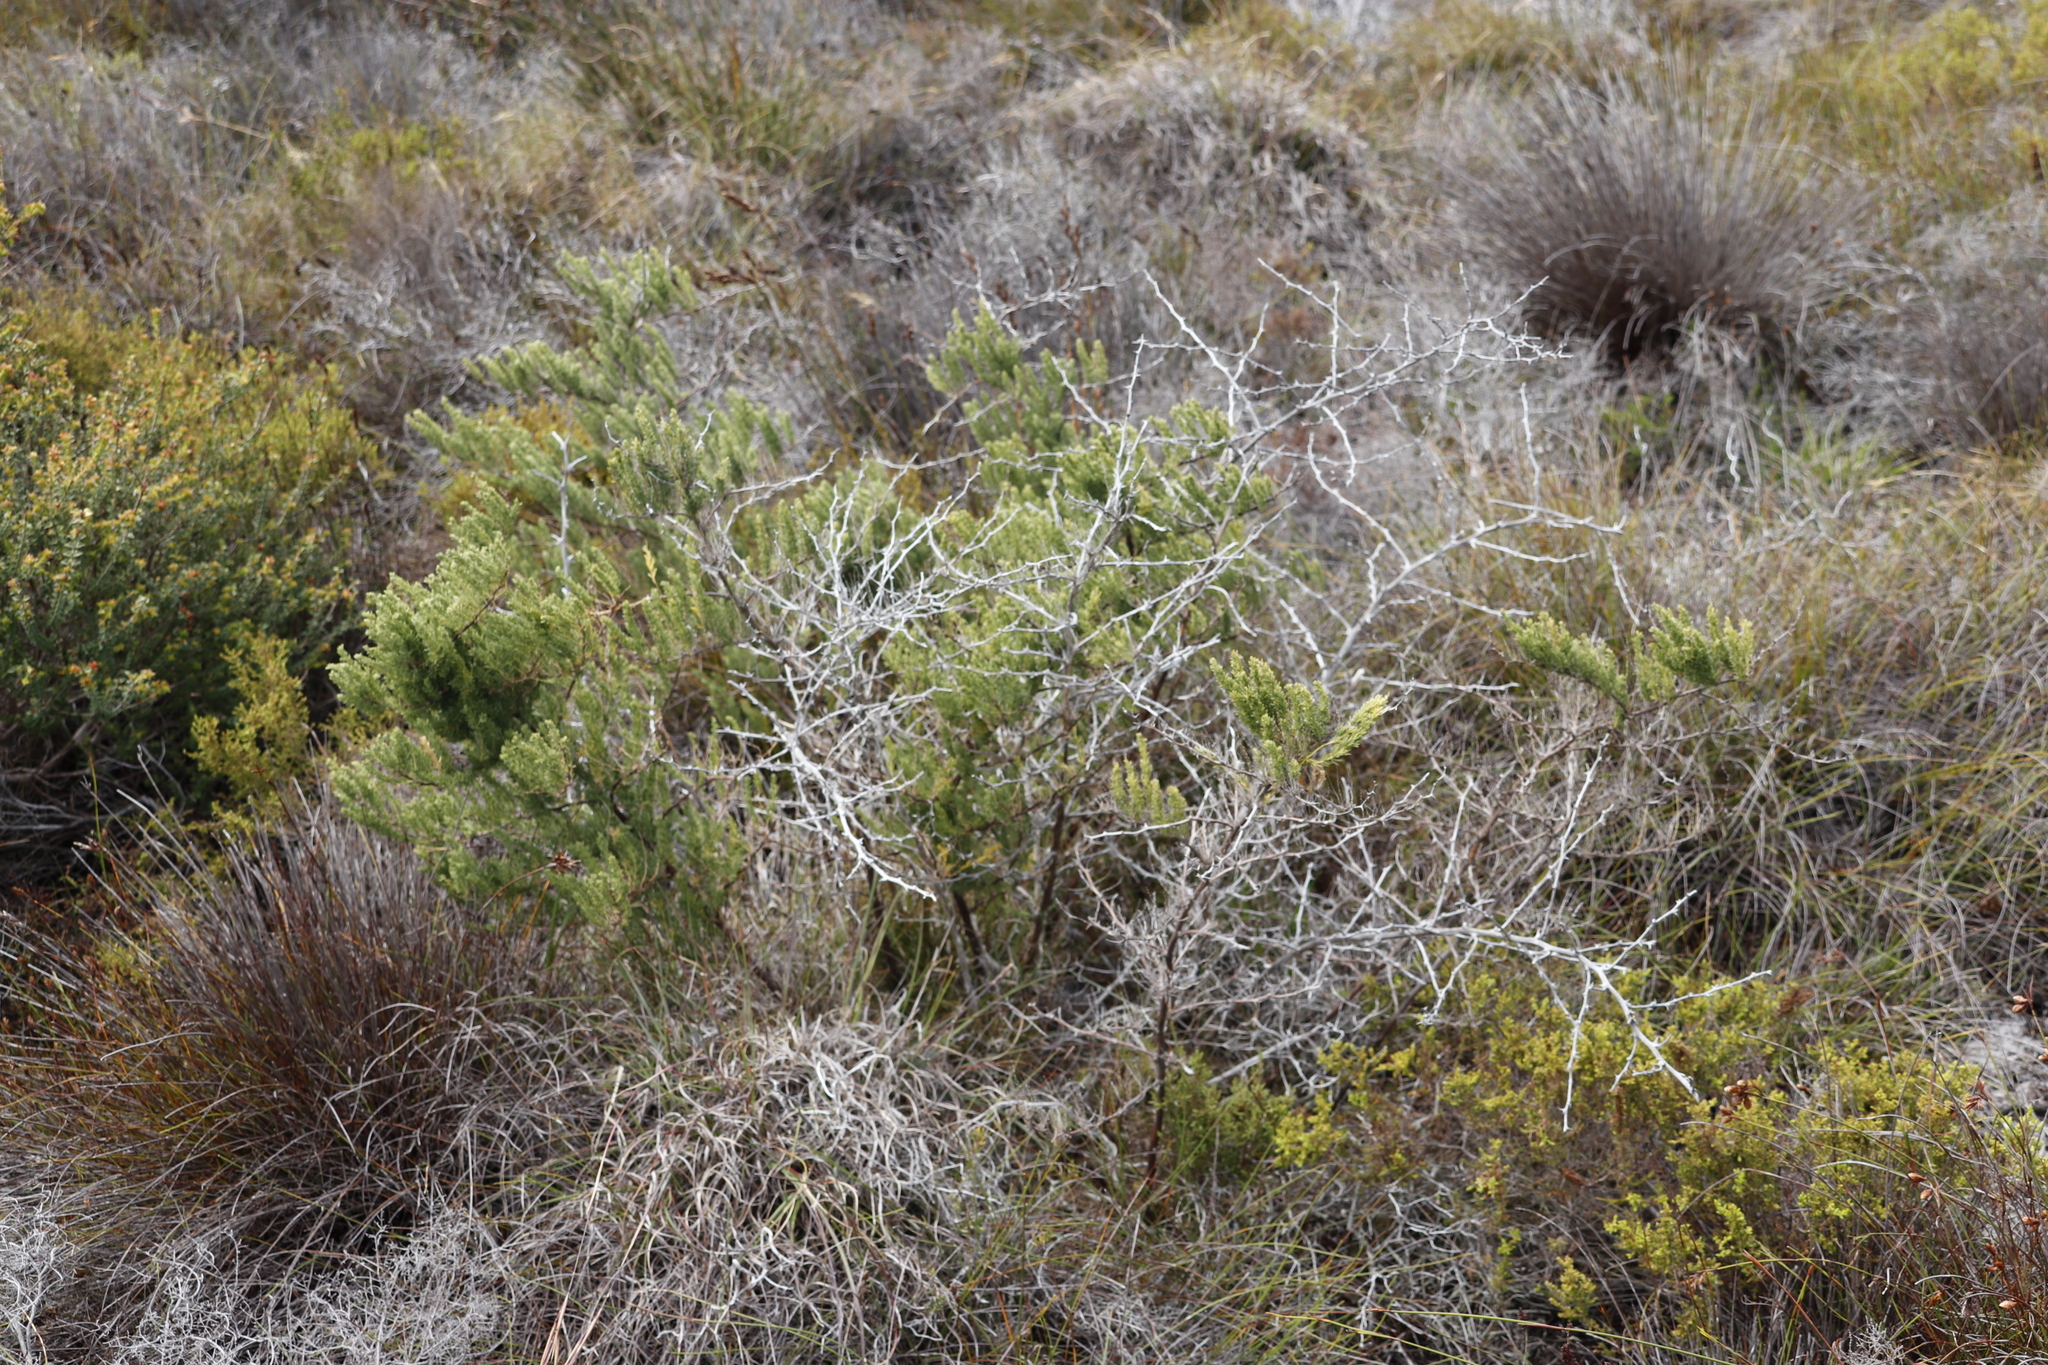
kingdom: Plantae
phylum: Tracheophyta
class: Liliopsida
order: Asparagales
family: Asparagaceae
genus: Asparagus
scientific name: Asparagus rubicundus
